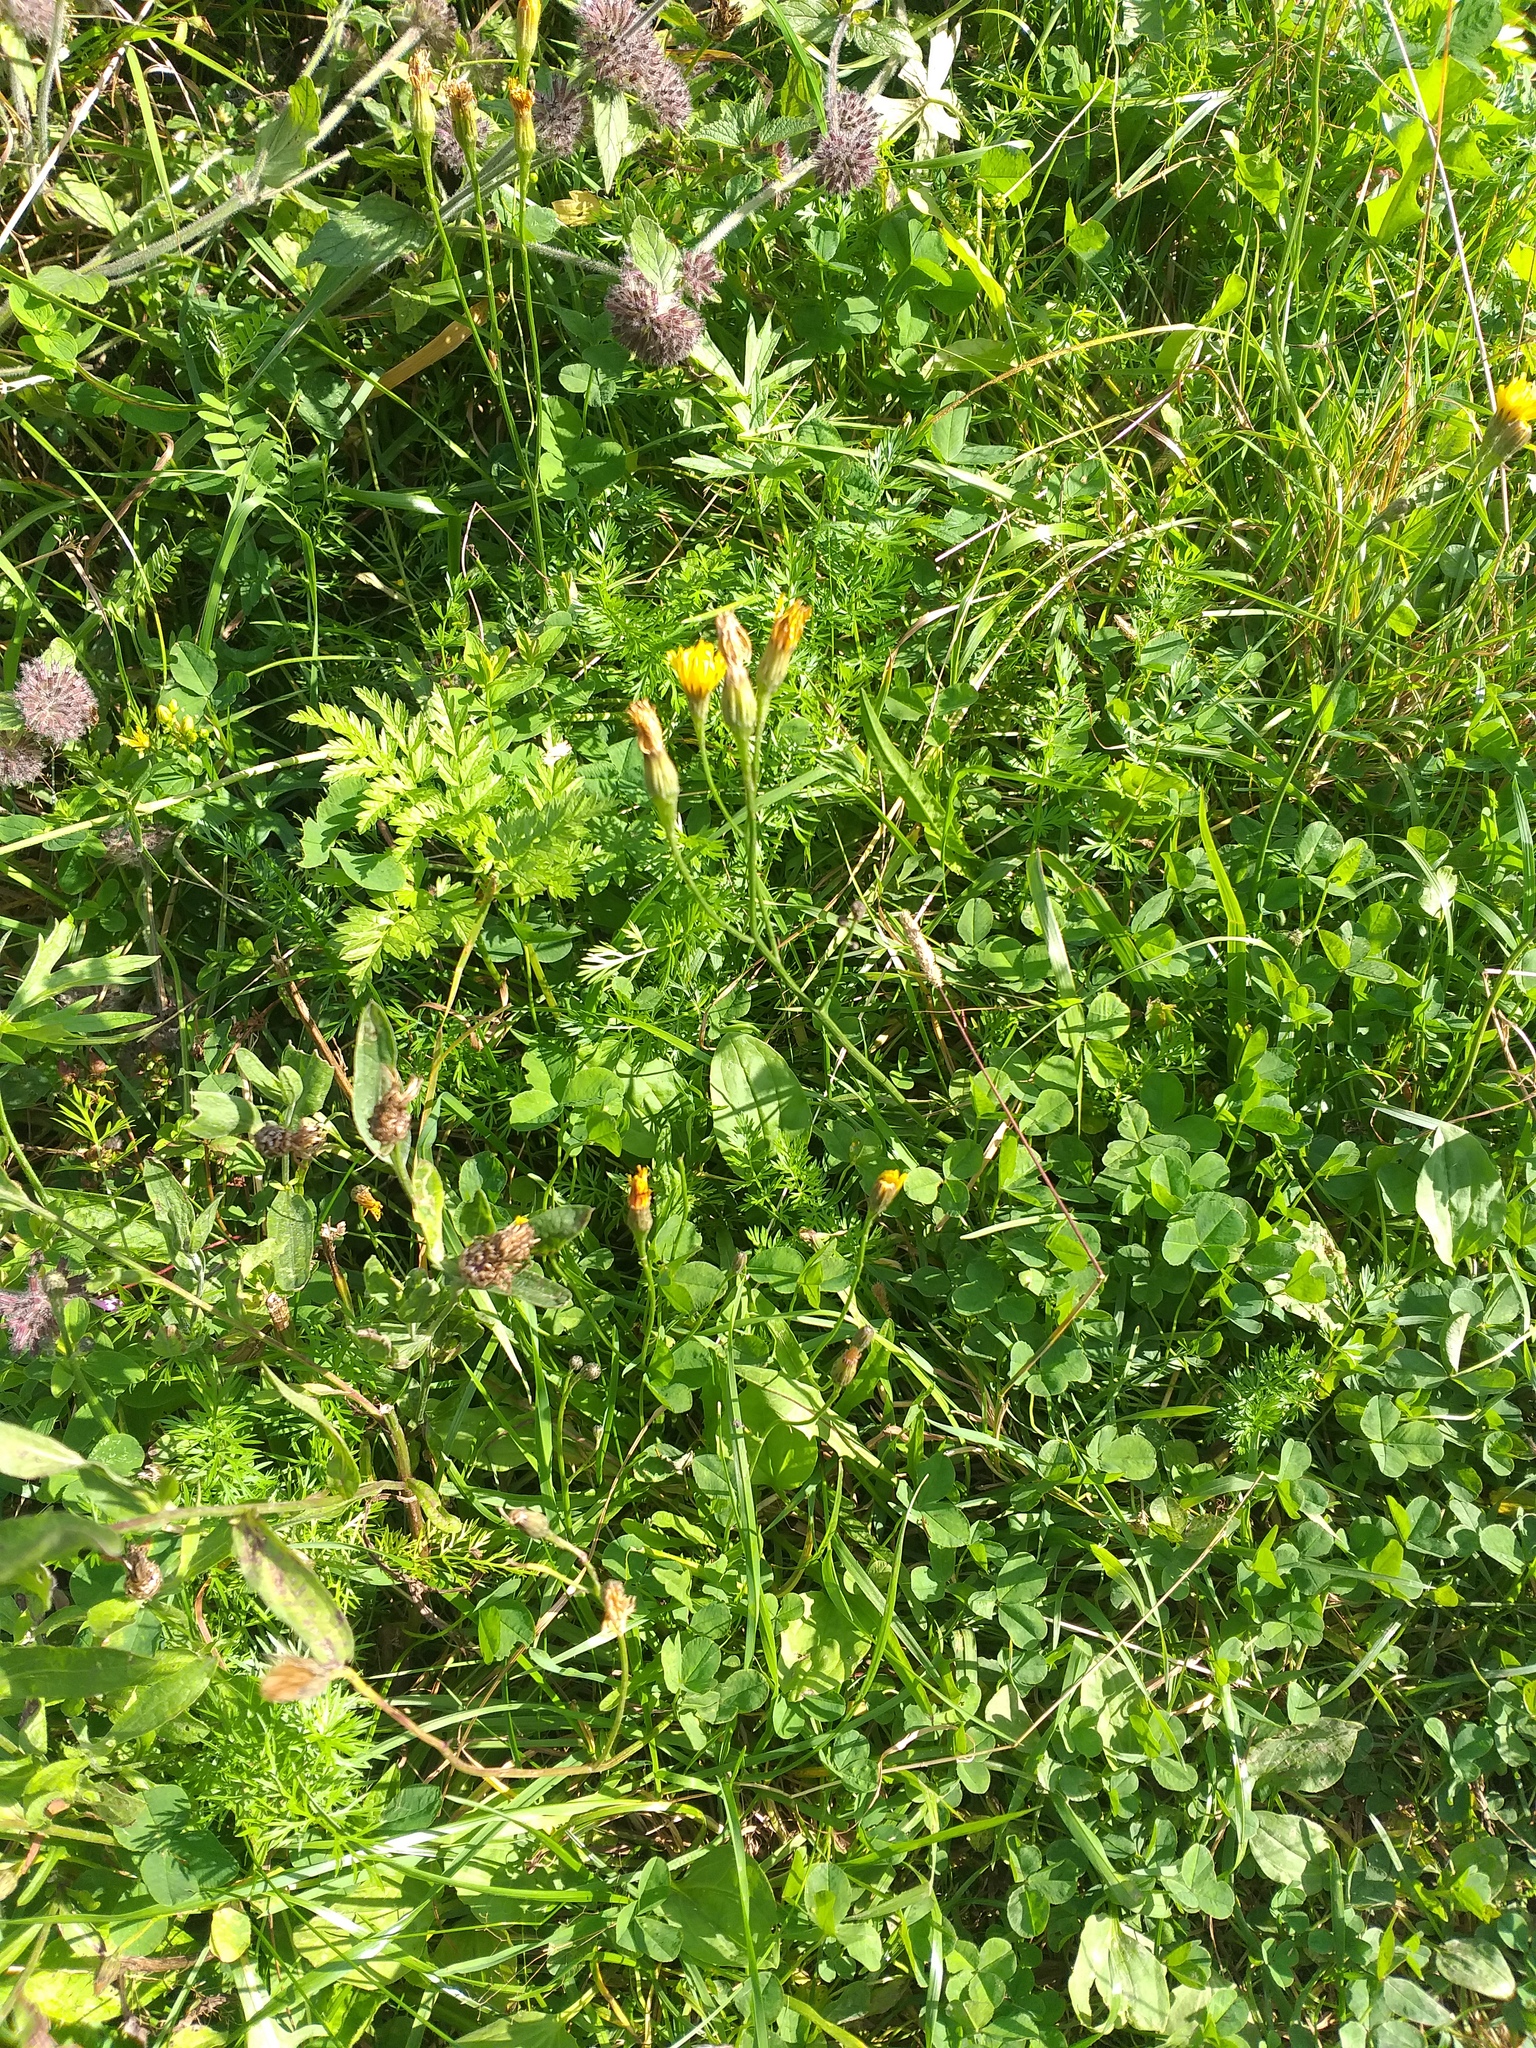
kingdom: Plantae
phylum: Tracheophyta
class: Magnoliopsida
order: Asterales
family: Asteraceae
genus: Scorzoneroides
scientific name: Scorzoneroides autumnalis
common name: Autumn hawkbit
